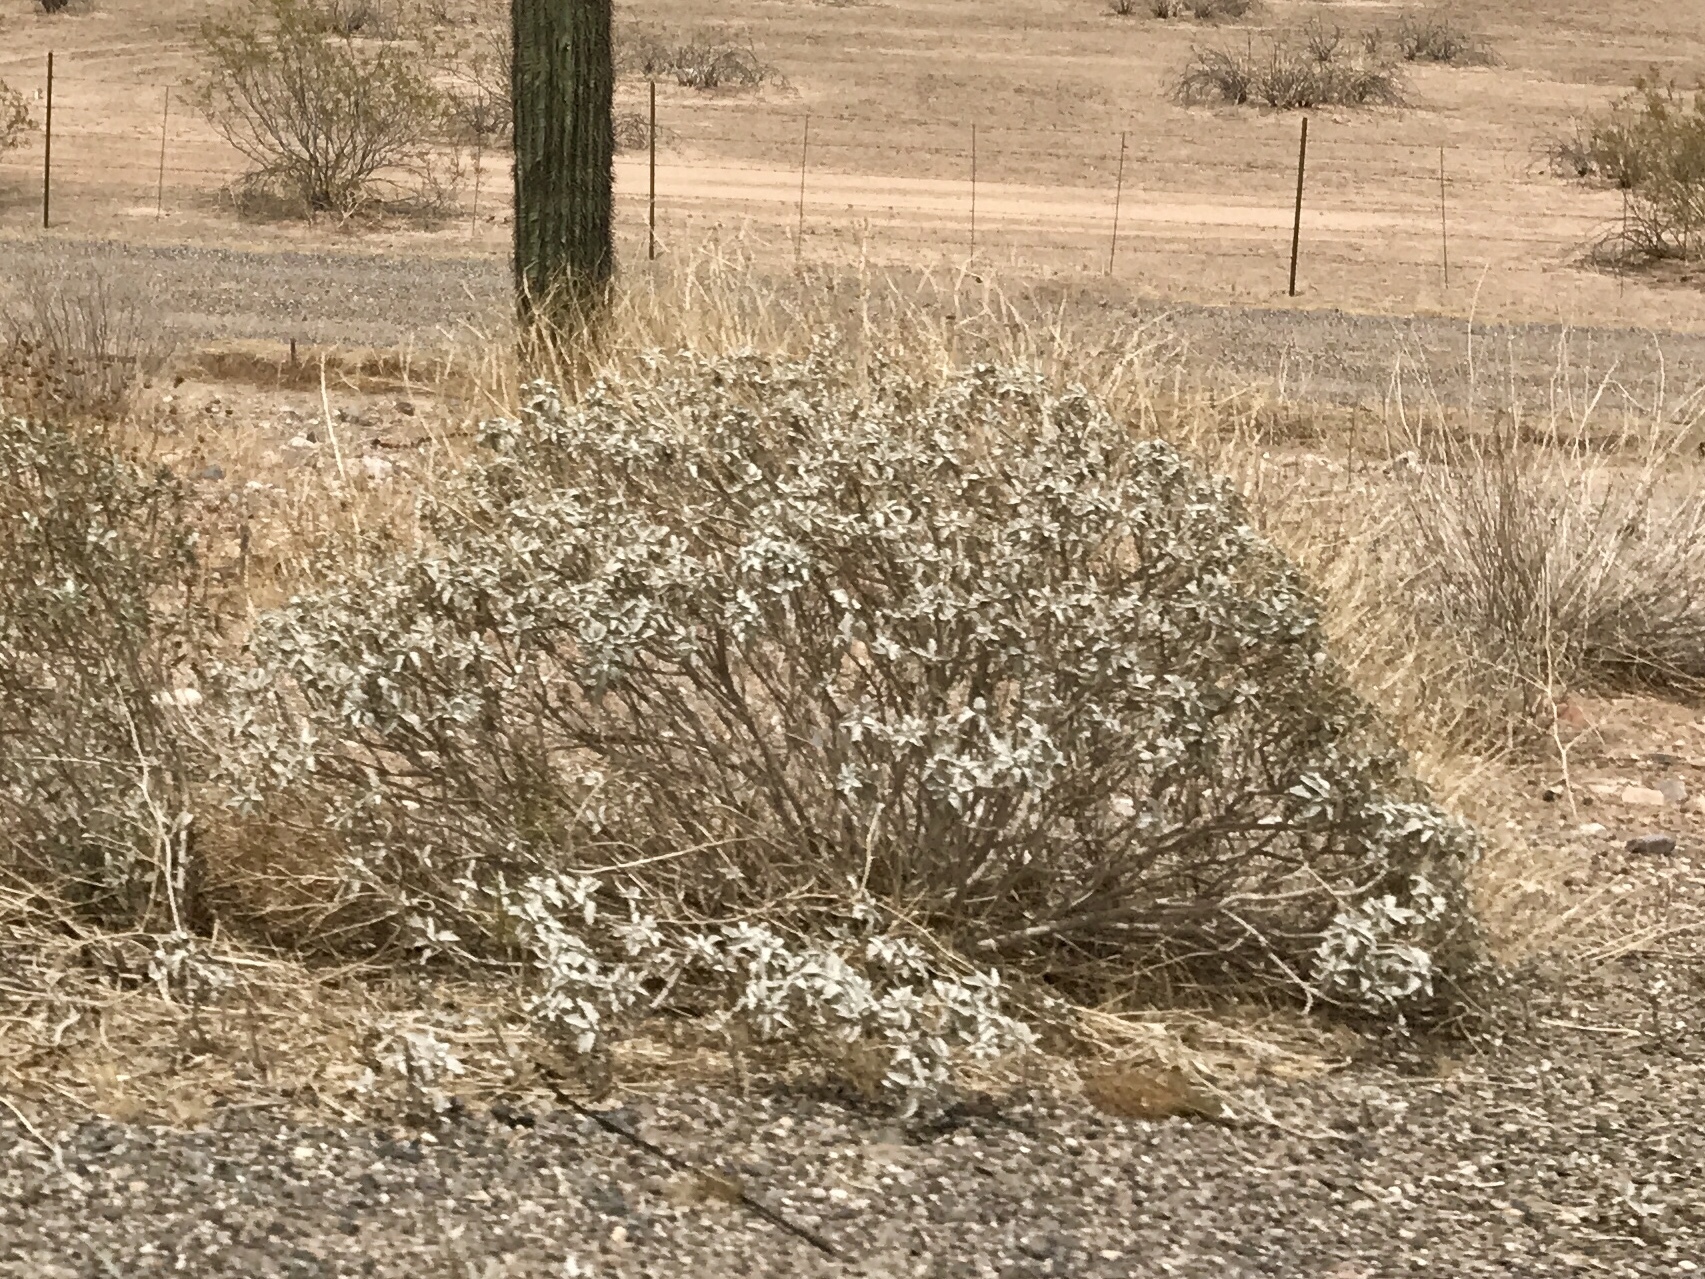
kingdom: Plantae
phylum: Tracheophyta
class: Magnoliopsida
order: Asterales
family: Asteraceae
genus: Encelia
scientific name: Encelia farinosa
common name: Brittlebush
